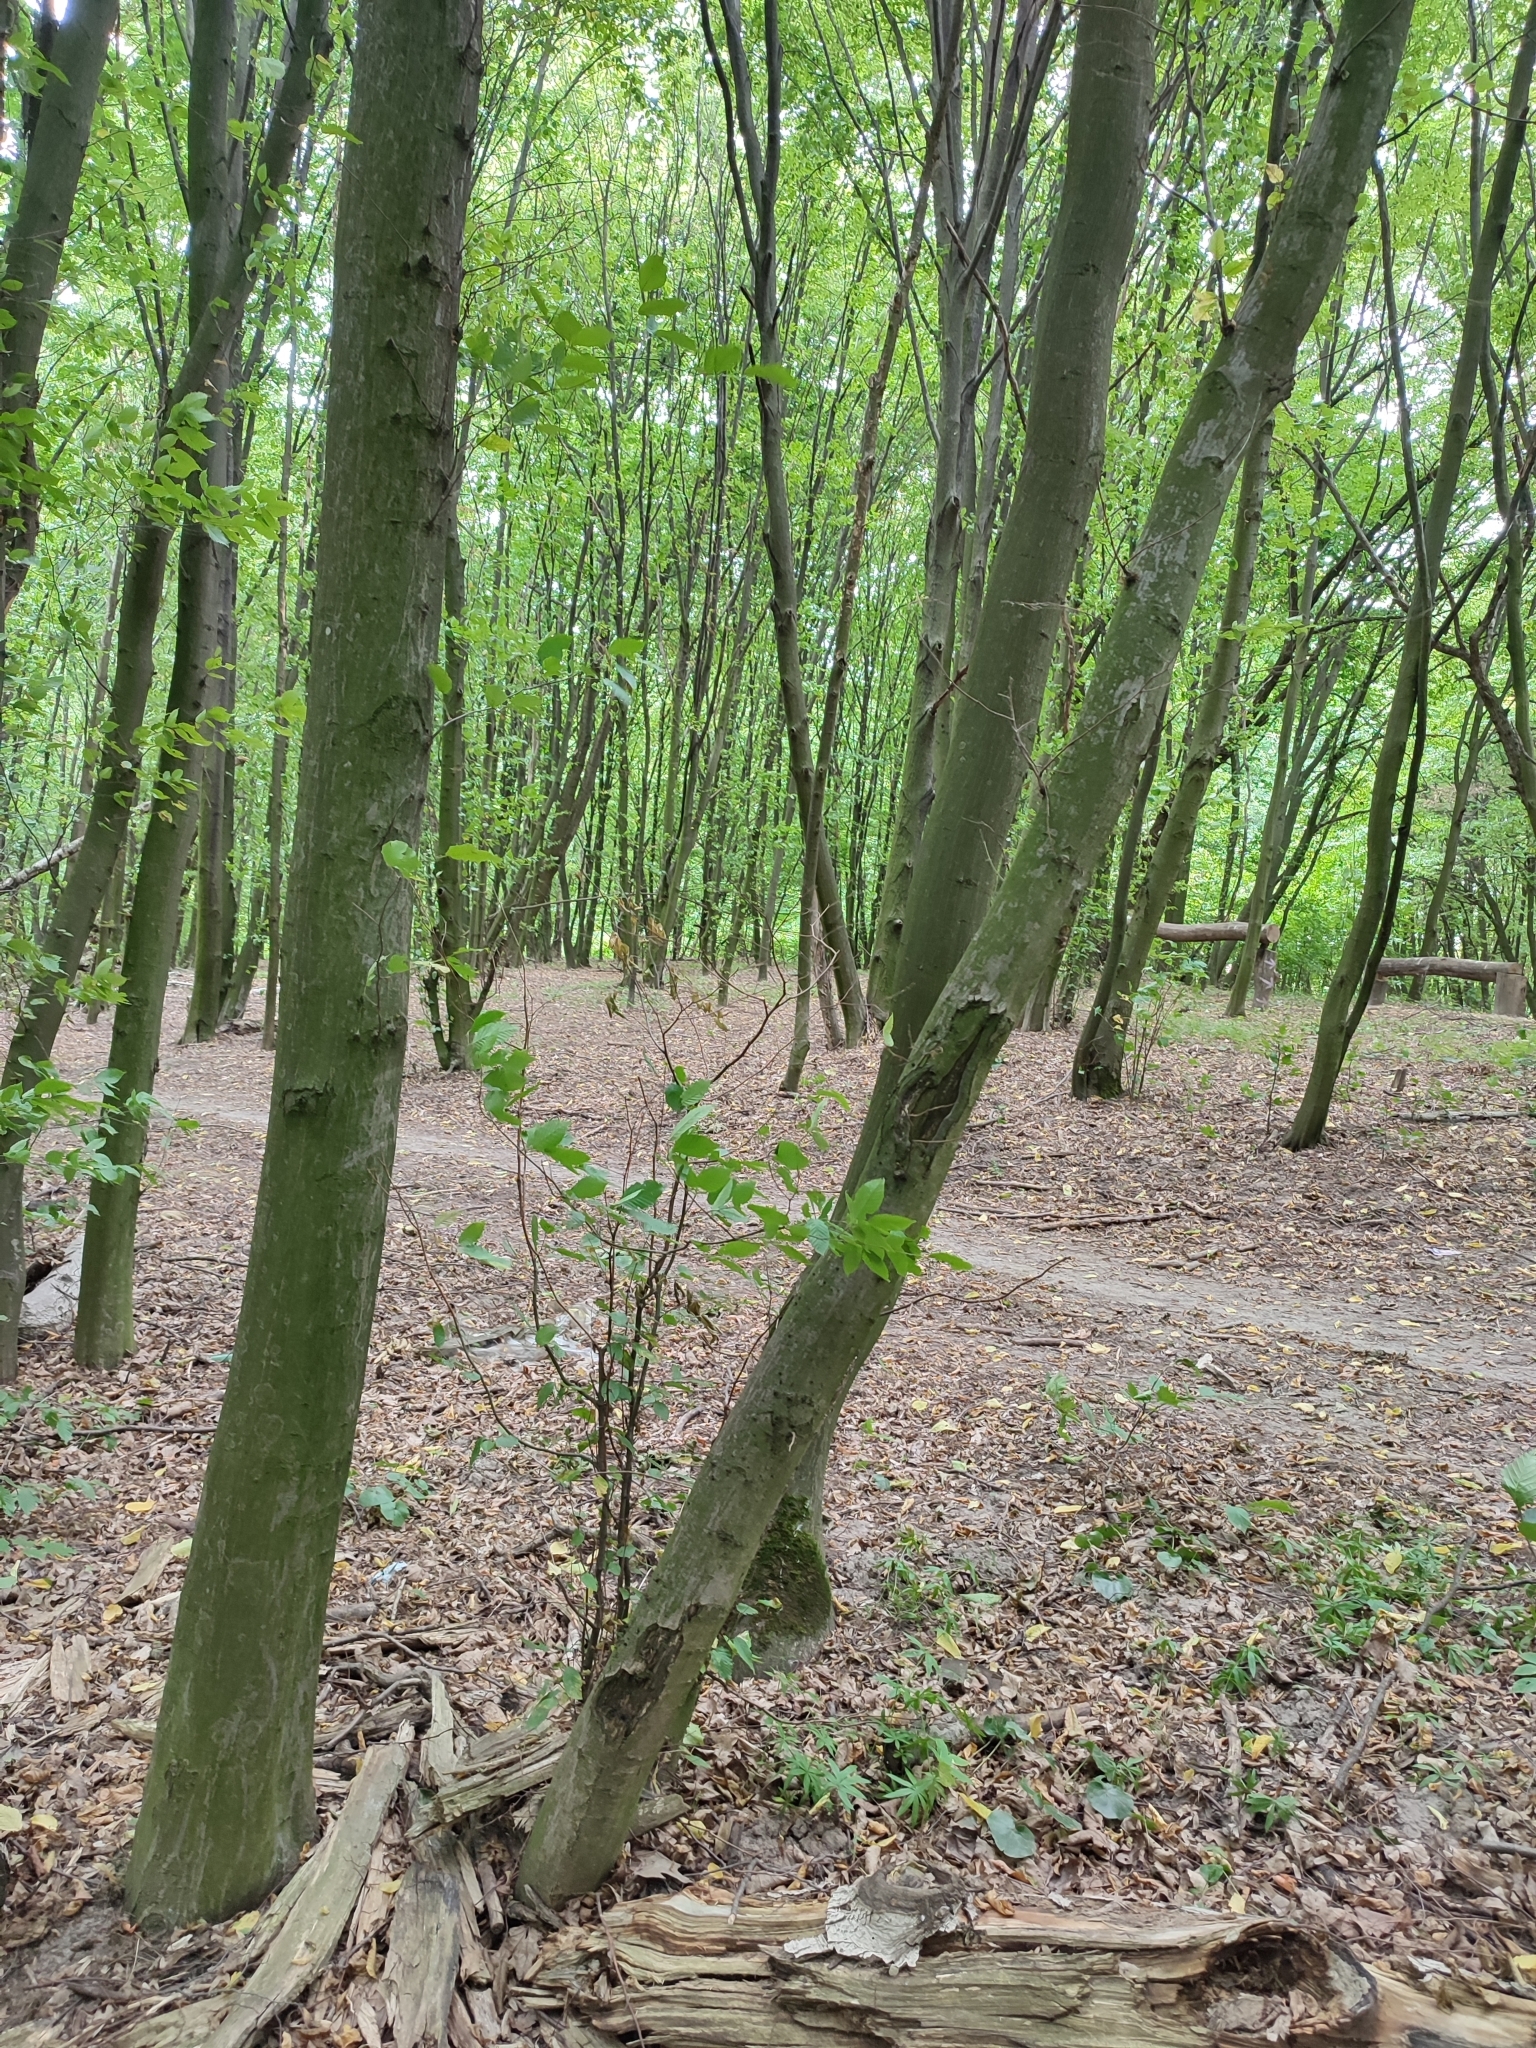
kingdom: Plantae
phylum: Tracheophyta
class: Magnoliopsida
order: Fagales
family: Betulaceae
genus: Carpinus
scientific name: Carpinus betulus
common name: Hornbeam
